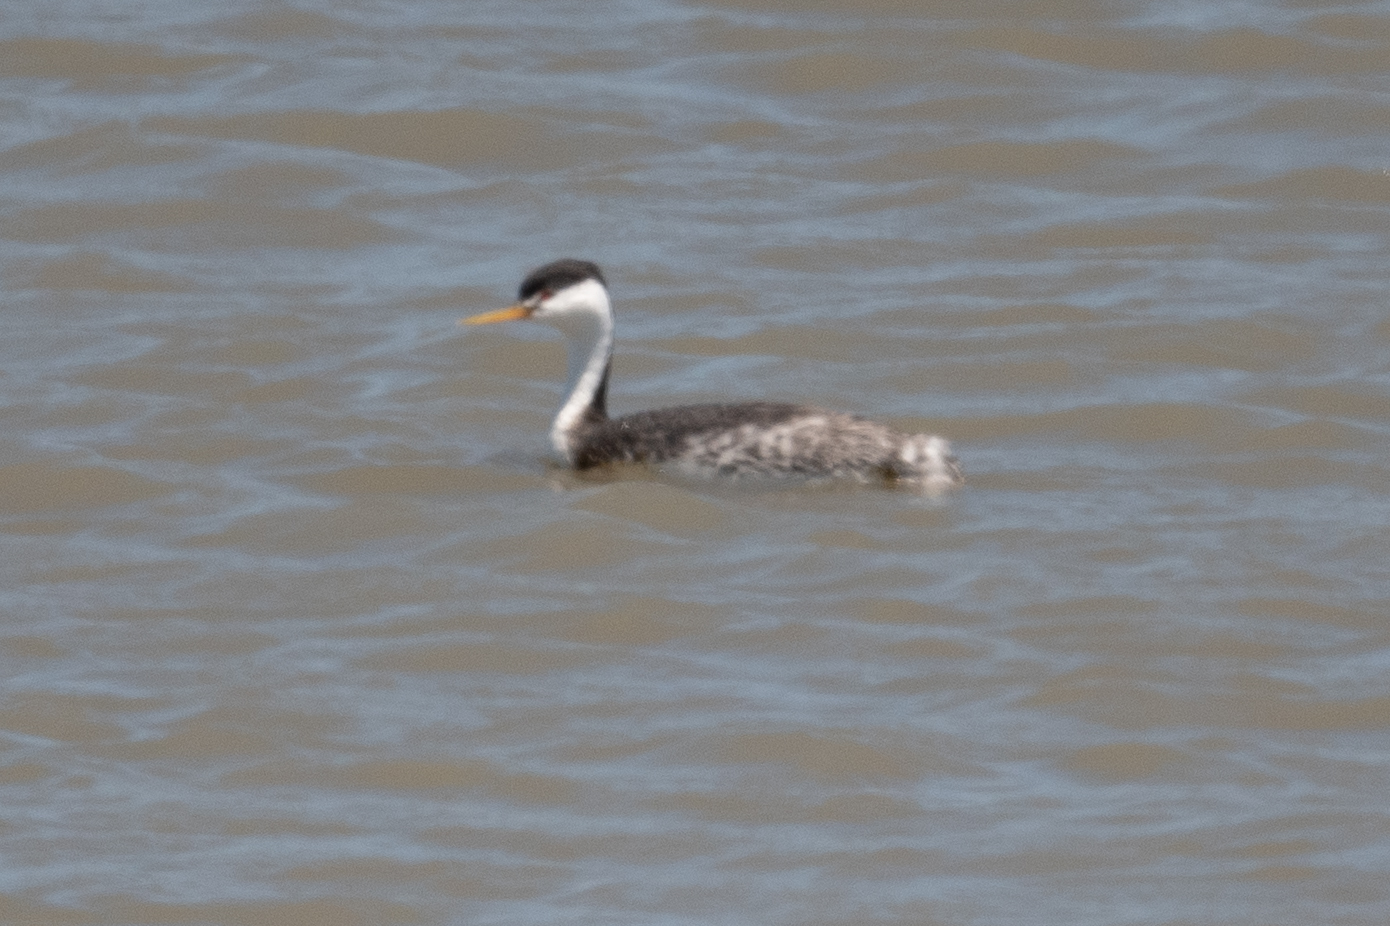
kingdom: Animalia
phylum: Chordata
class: Aves
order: Podicipediformes
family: Podicipedidae
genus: Aechmophorus
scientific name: Aechmophorus clarkii
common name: Clark's grebe
